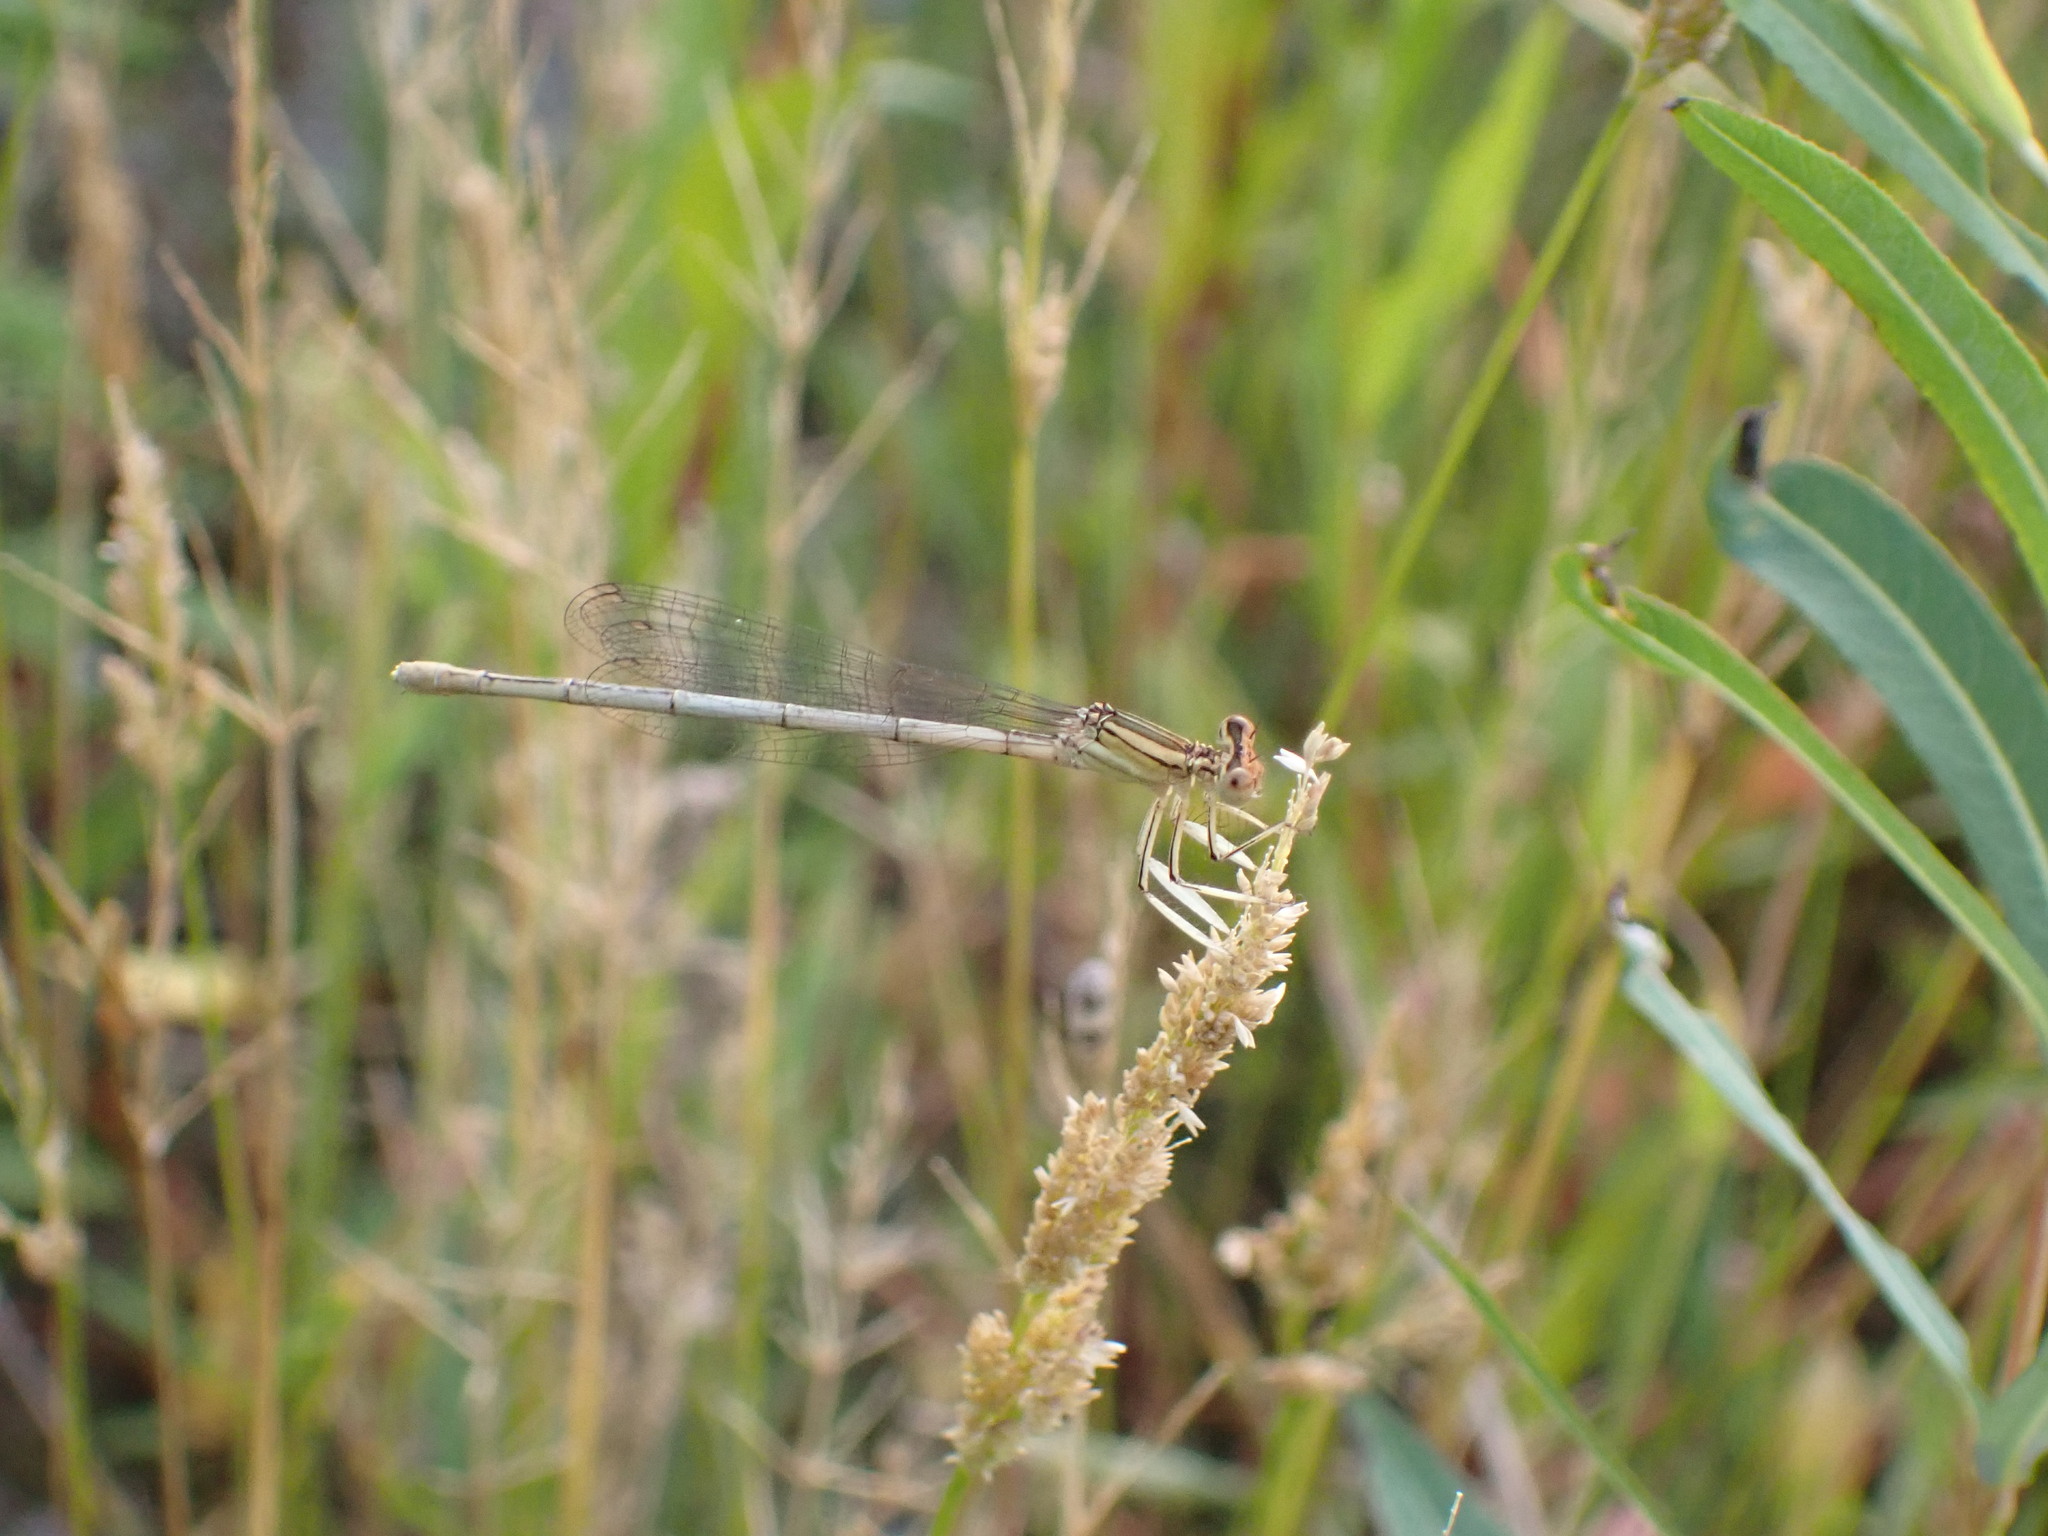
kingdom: Animalia
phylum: Arthropoda
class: Insecta
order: Odonata
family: Platycnemididae
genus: Platycnemis
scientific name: Platycnemis latipes
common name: White featherleg
